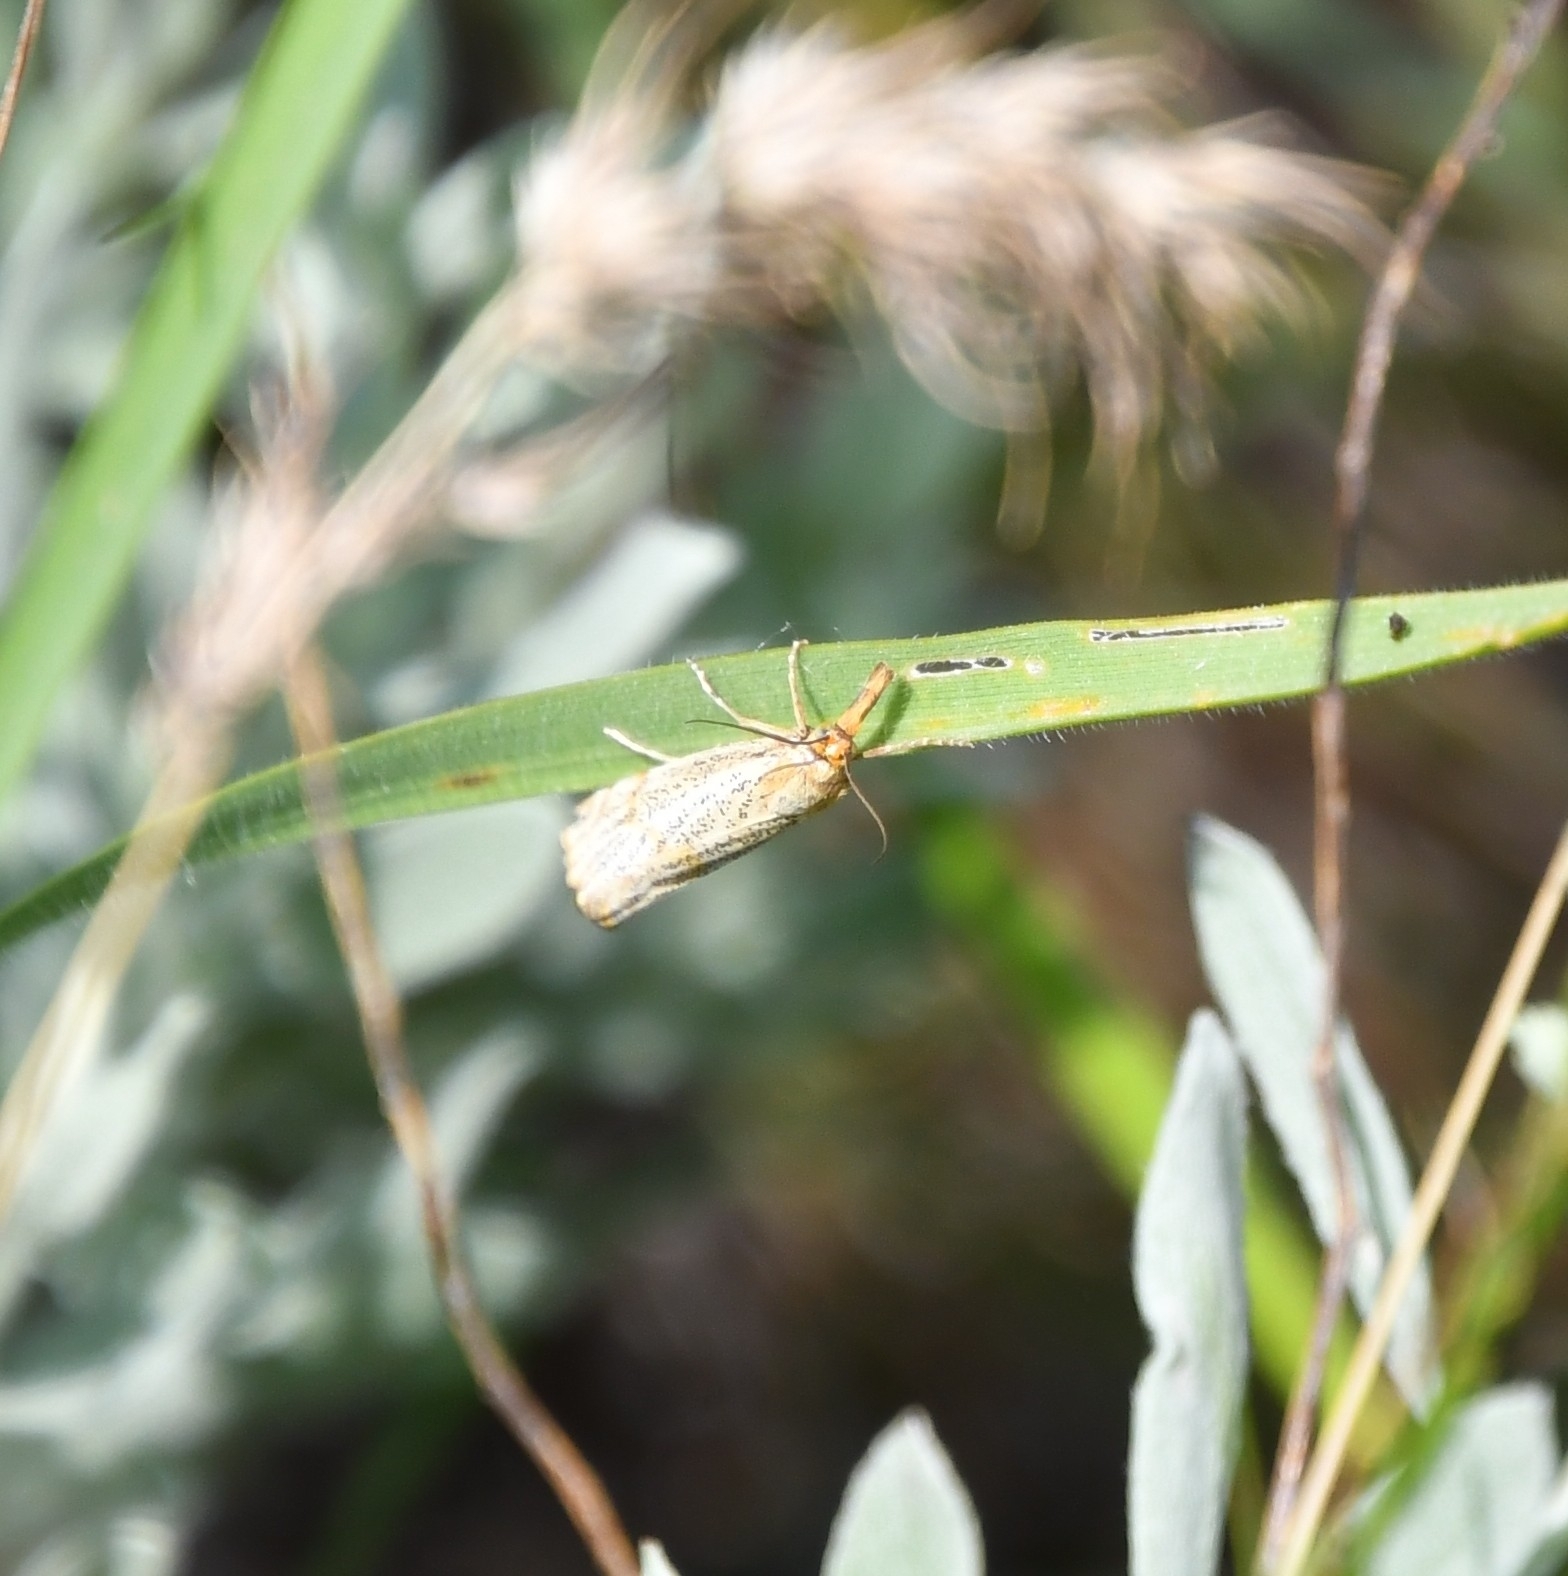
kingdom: Animalia
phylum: Arthropoda
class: Insecta
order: Lepidoptera
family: Crambidae
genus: Thisanotia
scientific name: Thisanotia chrysonuchella
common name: Powdered grass-veneer
